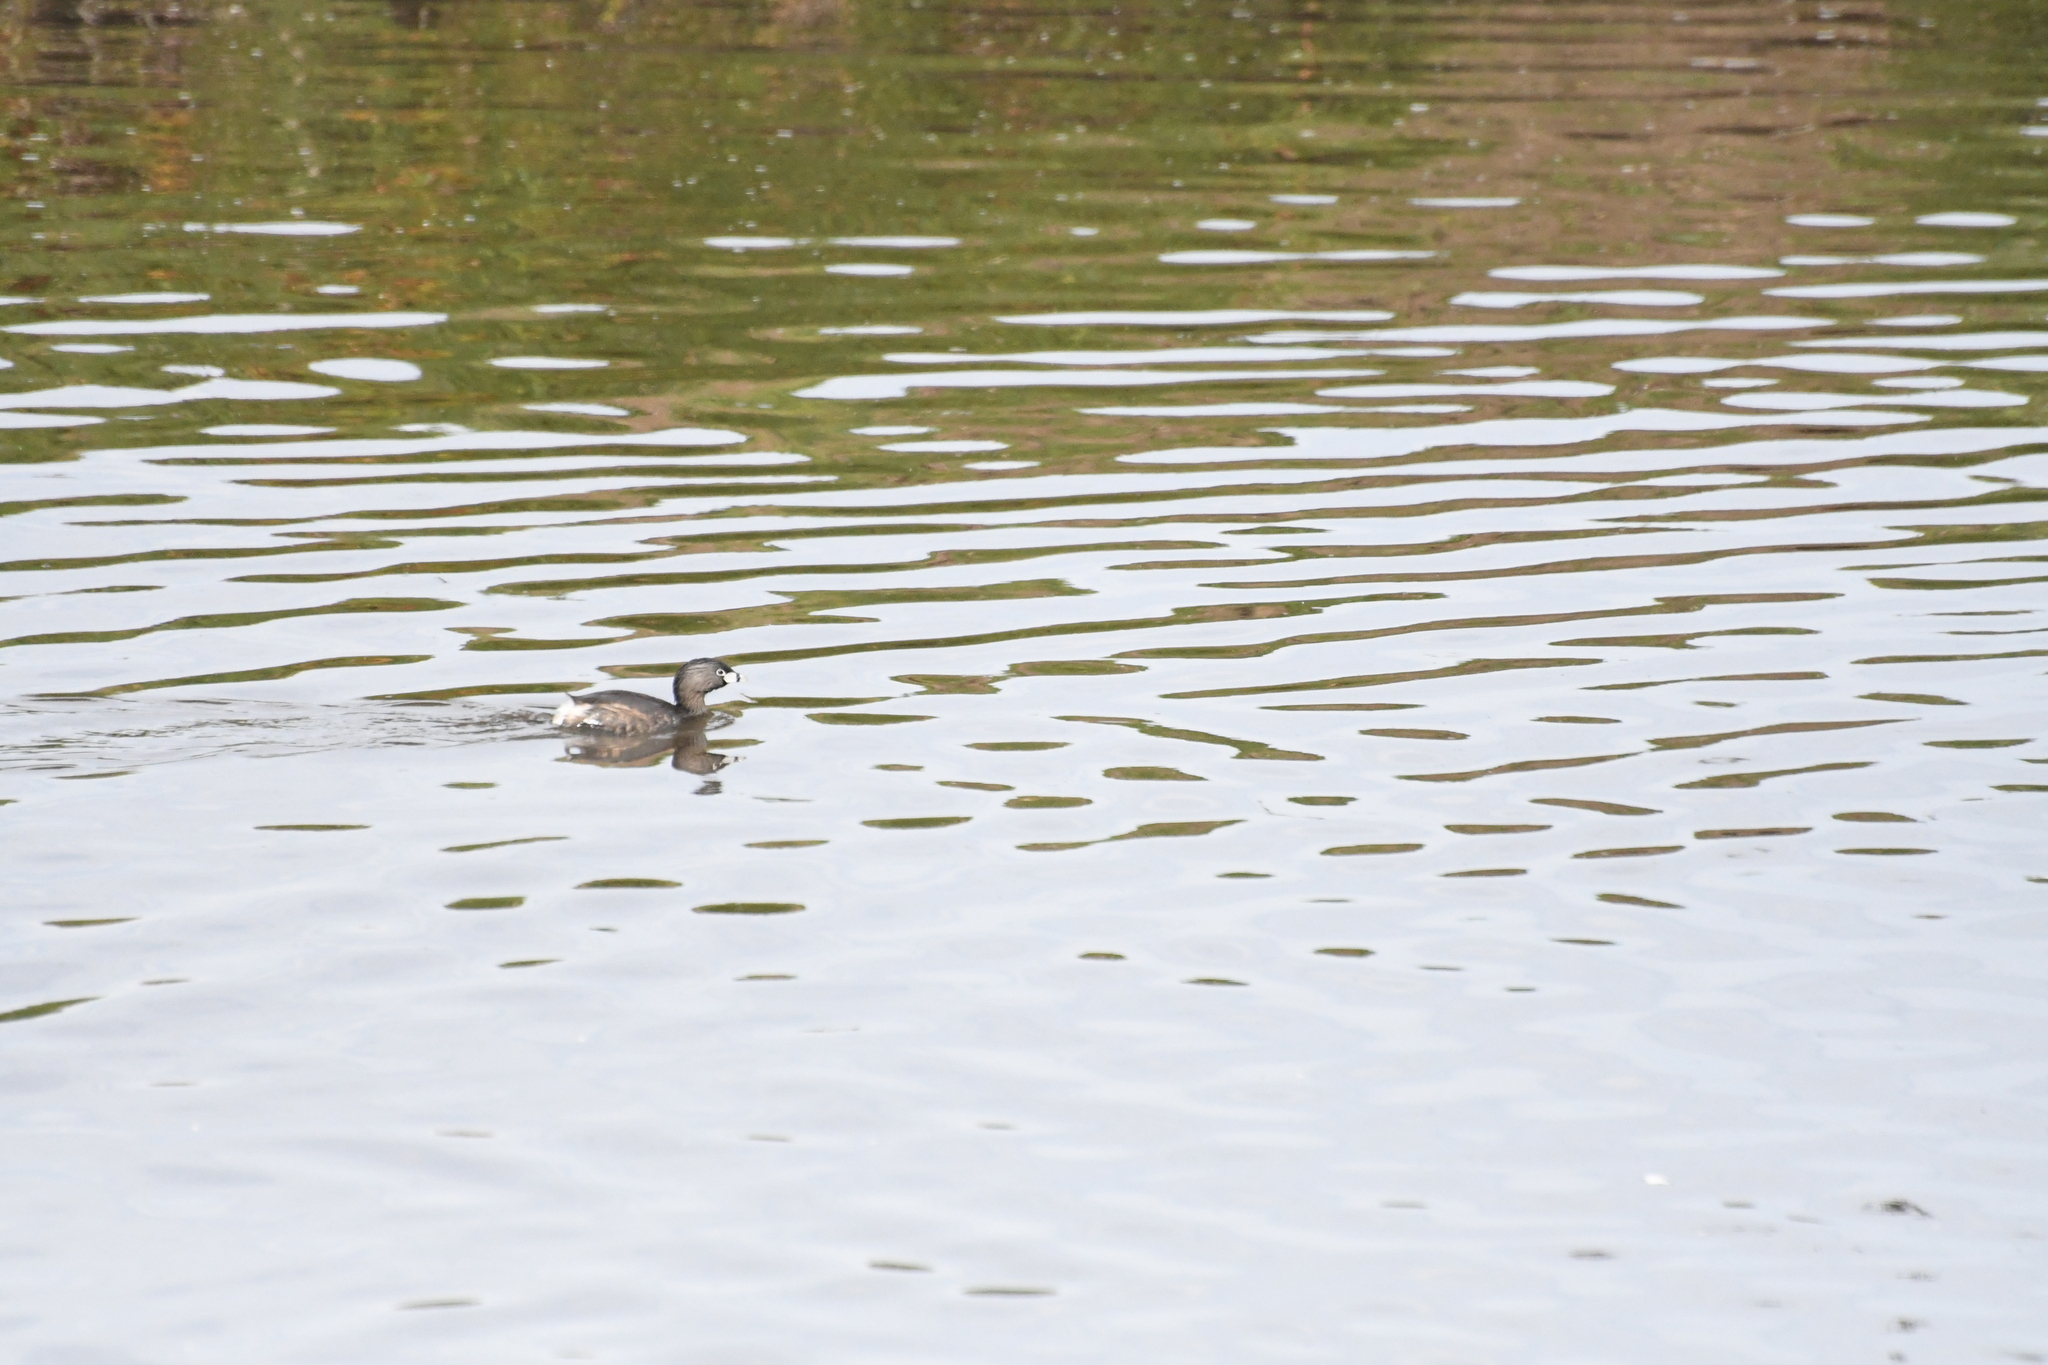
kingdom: Animalia
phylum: Chordata
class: Aves
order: Podicipediformes
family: Podicipedidae
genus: Podilymbus
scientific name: Podilymbus podiceps
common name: Pied-billed grebe
